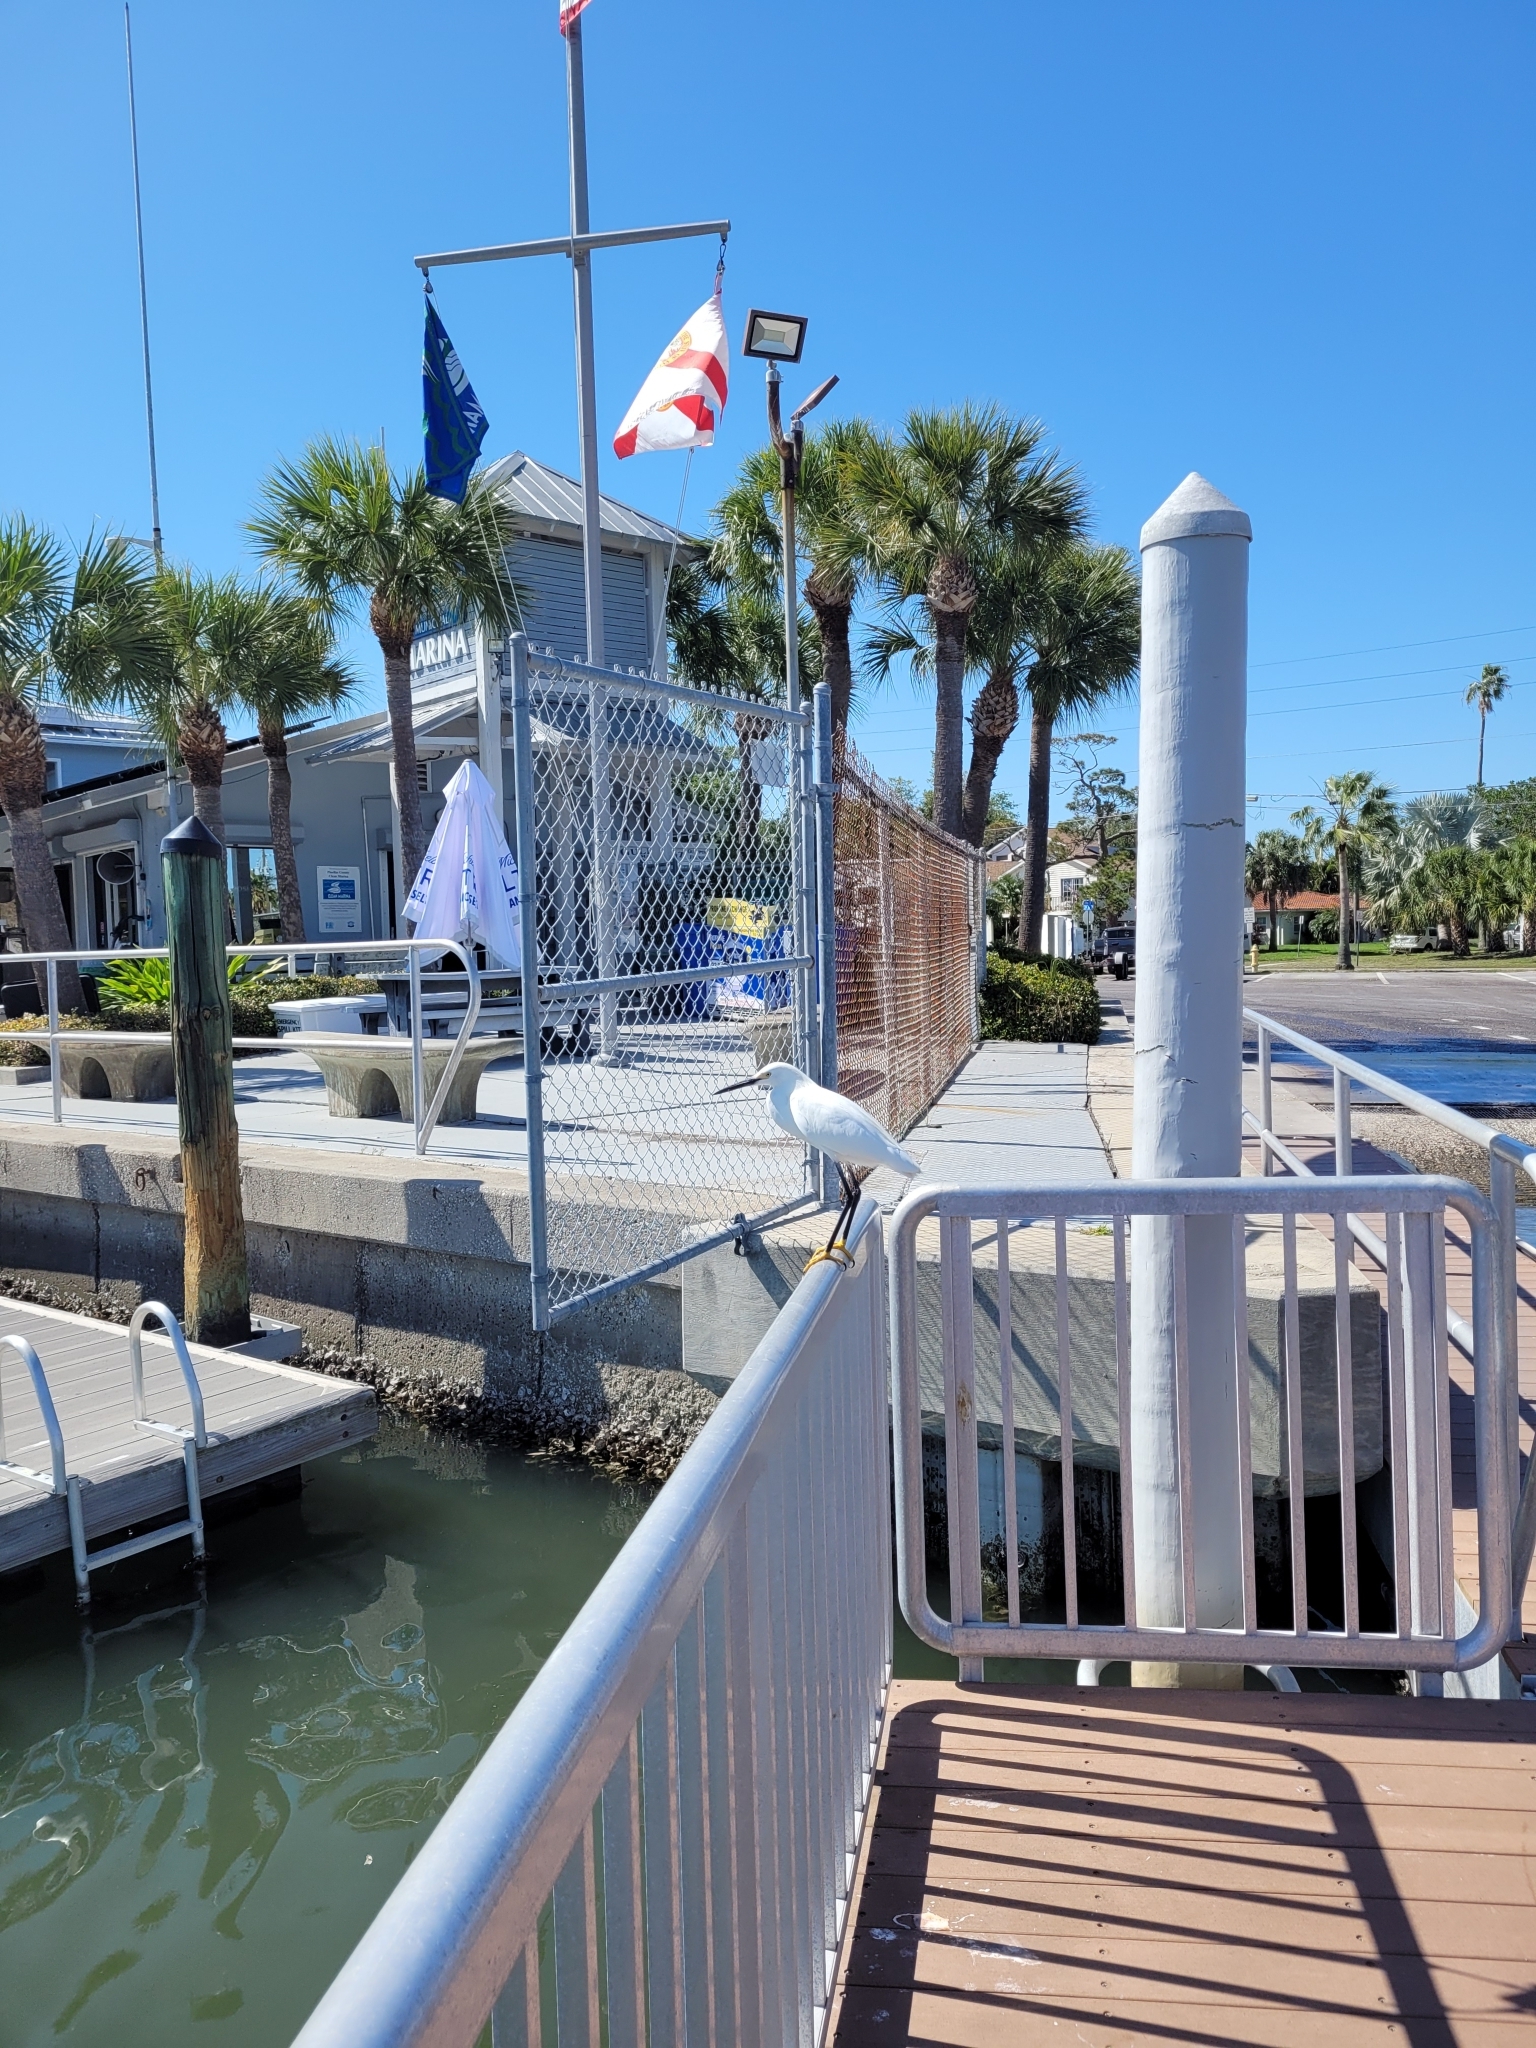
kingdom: Animalia
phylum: Chordata
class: Aves
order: Pelecaniformes
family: Ardeidae
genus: Egretta
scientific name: Egretta thula
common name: Snowy egret
